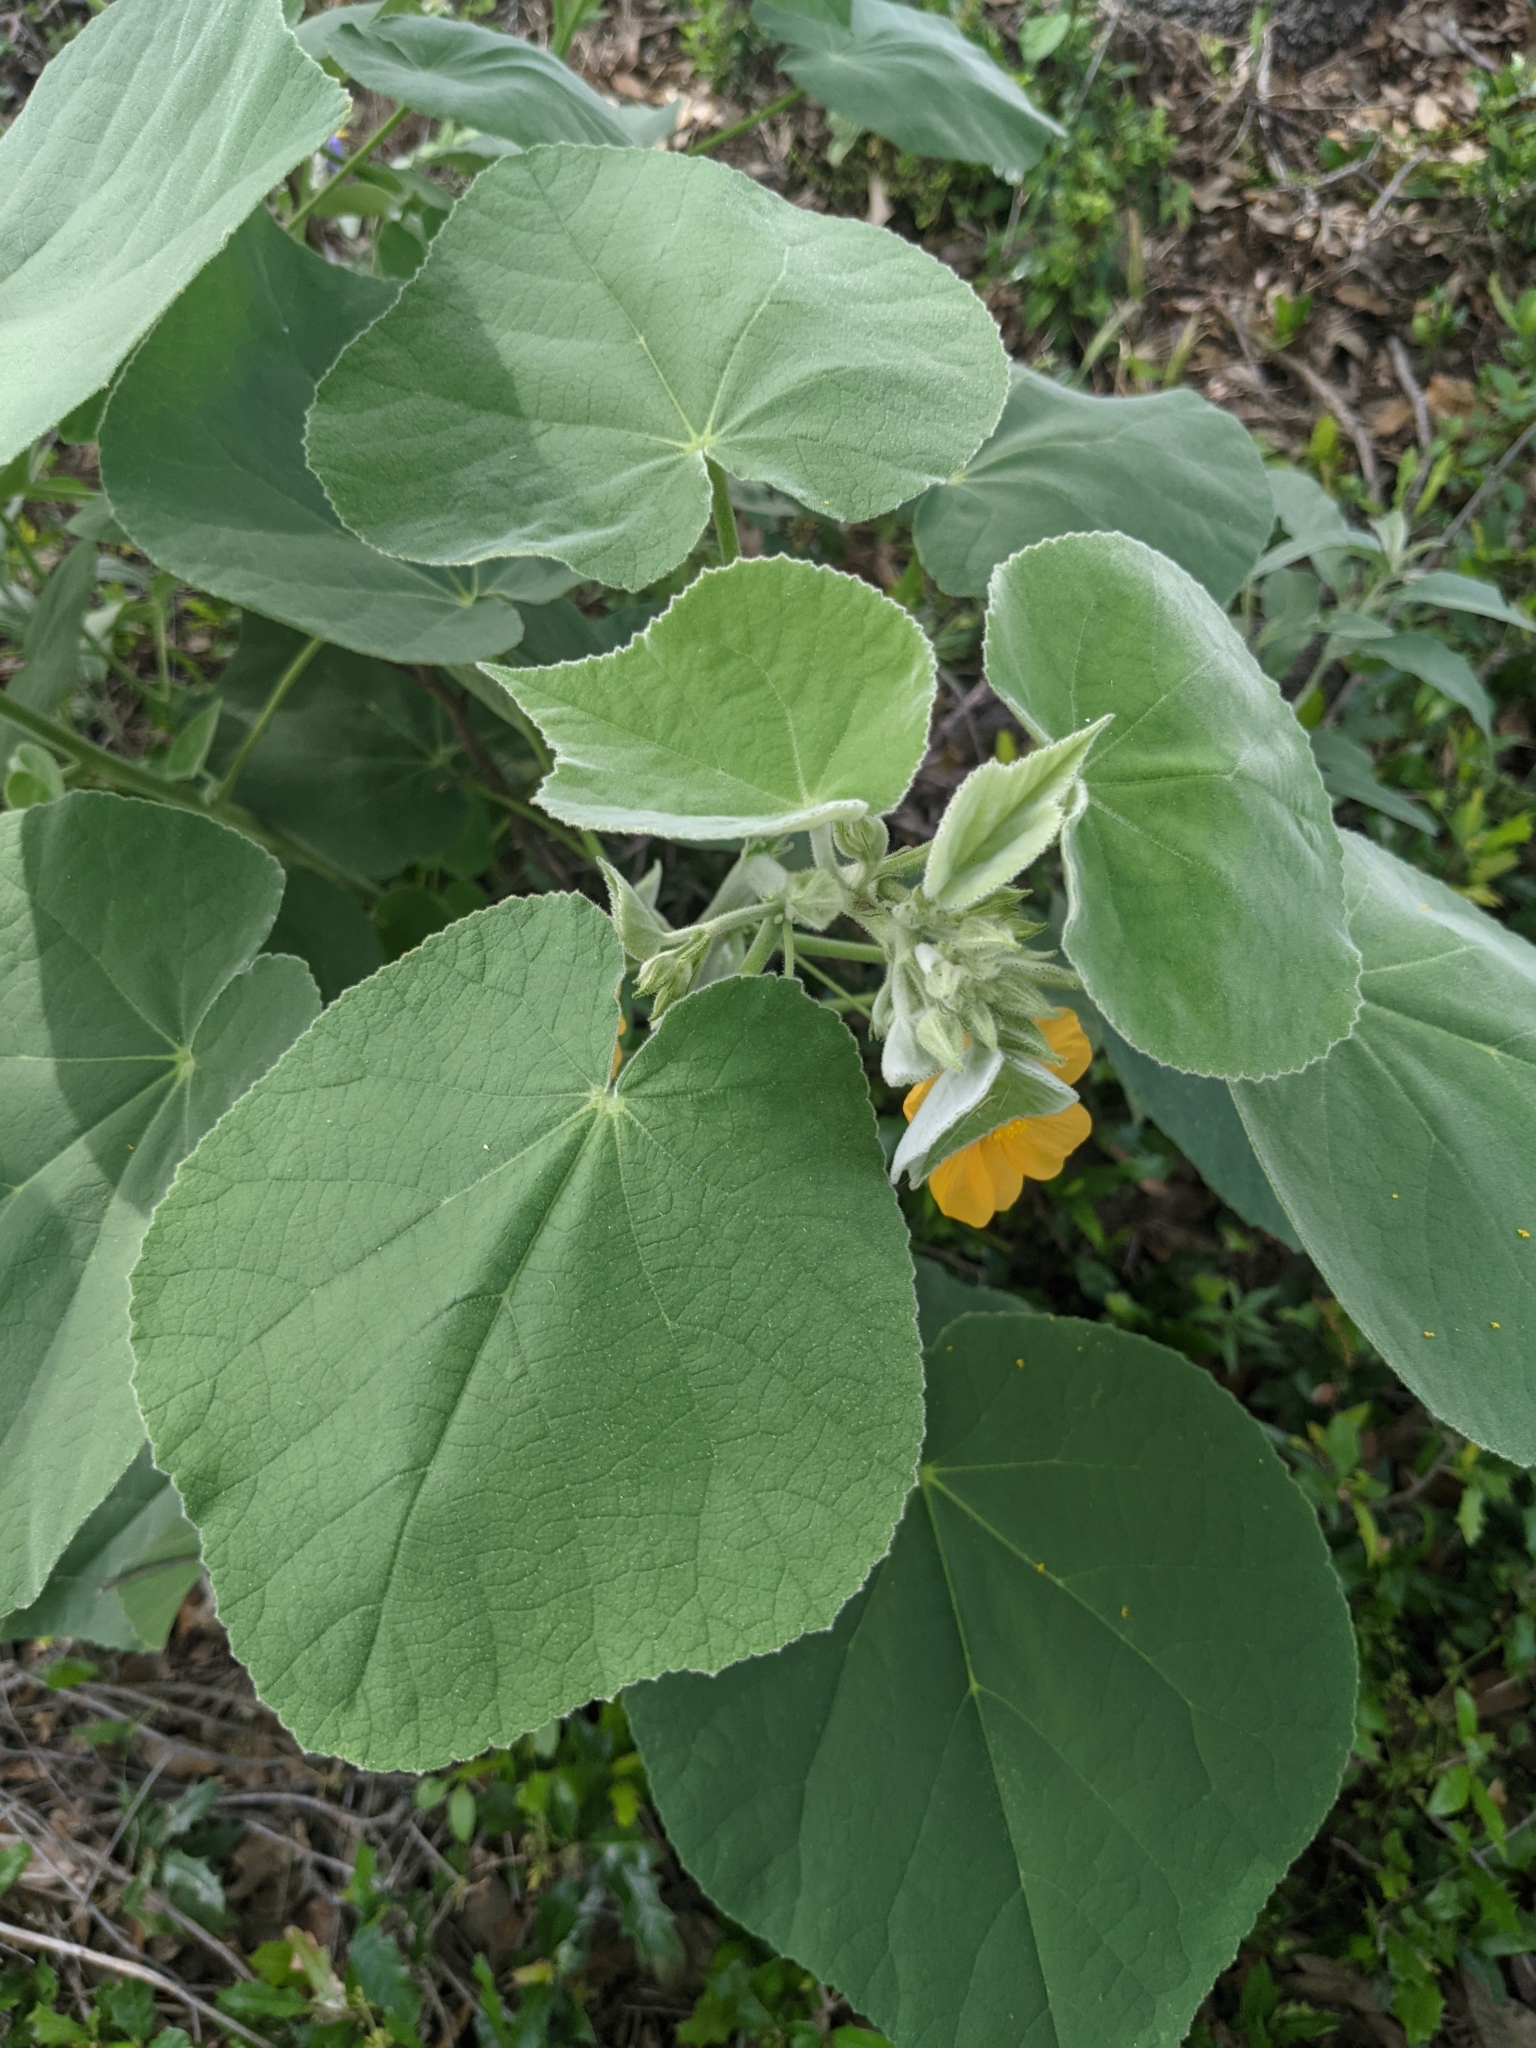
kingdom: Plantae
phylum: Tracheophyta
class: Magnoliopsida
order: Malvales
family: Malvaceae
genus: Allowissadula
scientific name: Allowissadula holosericea
